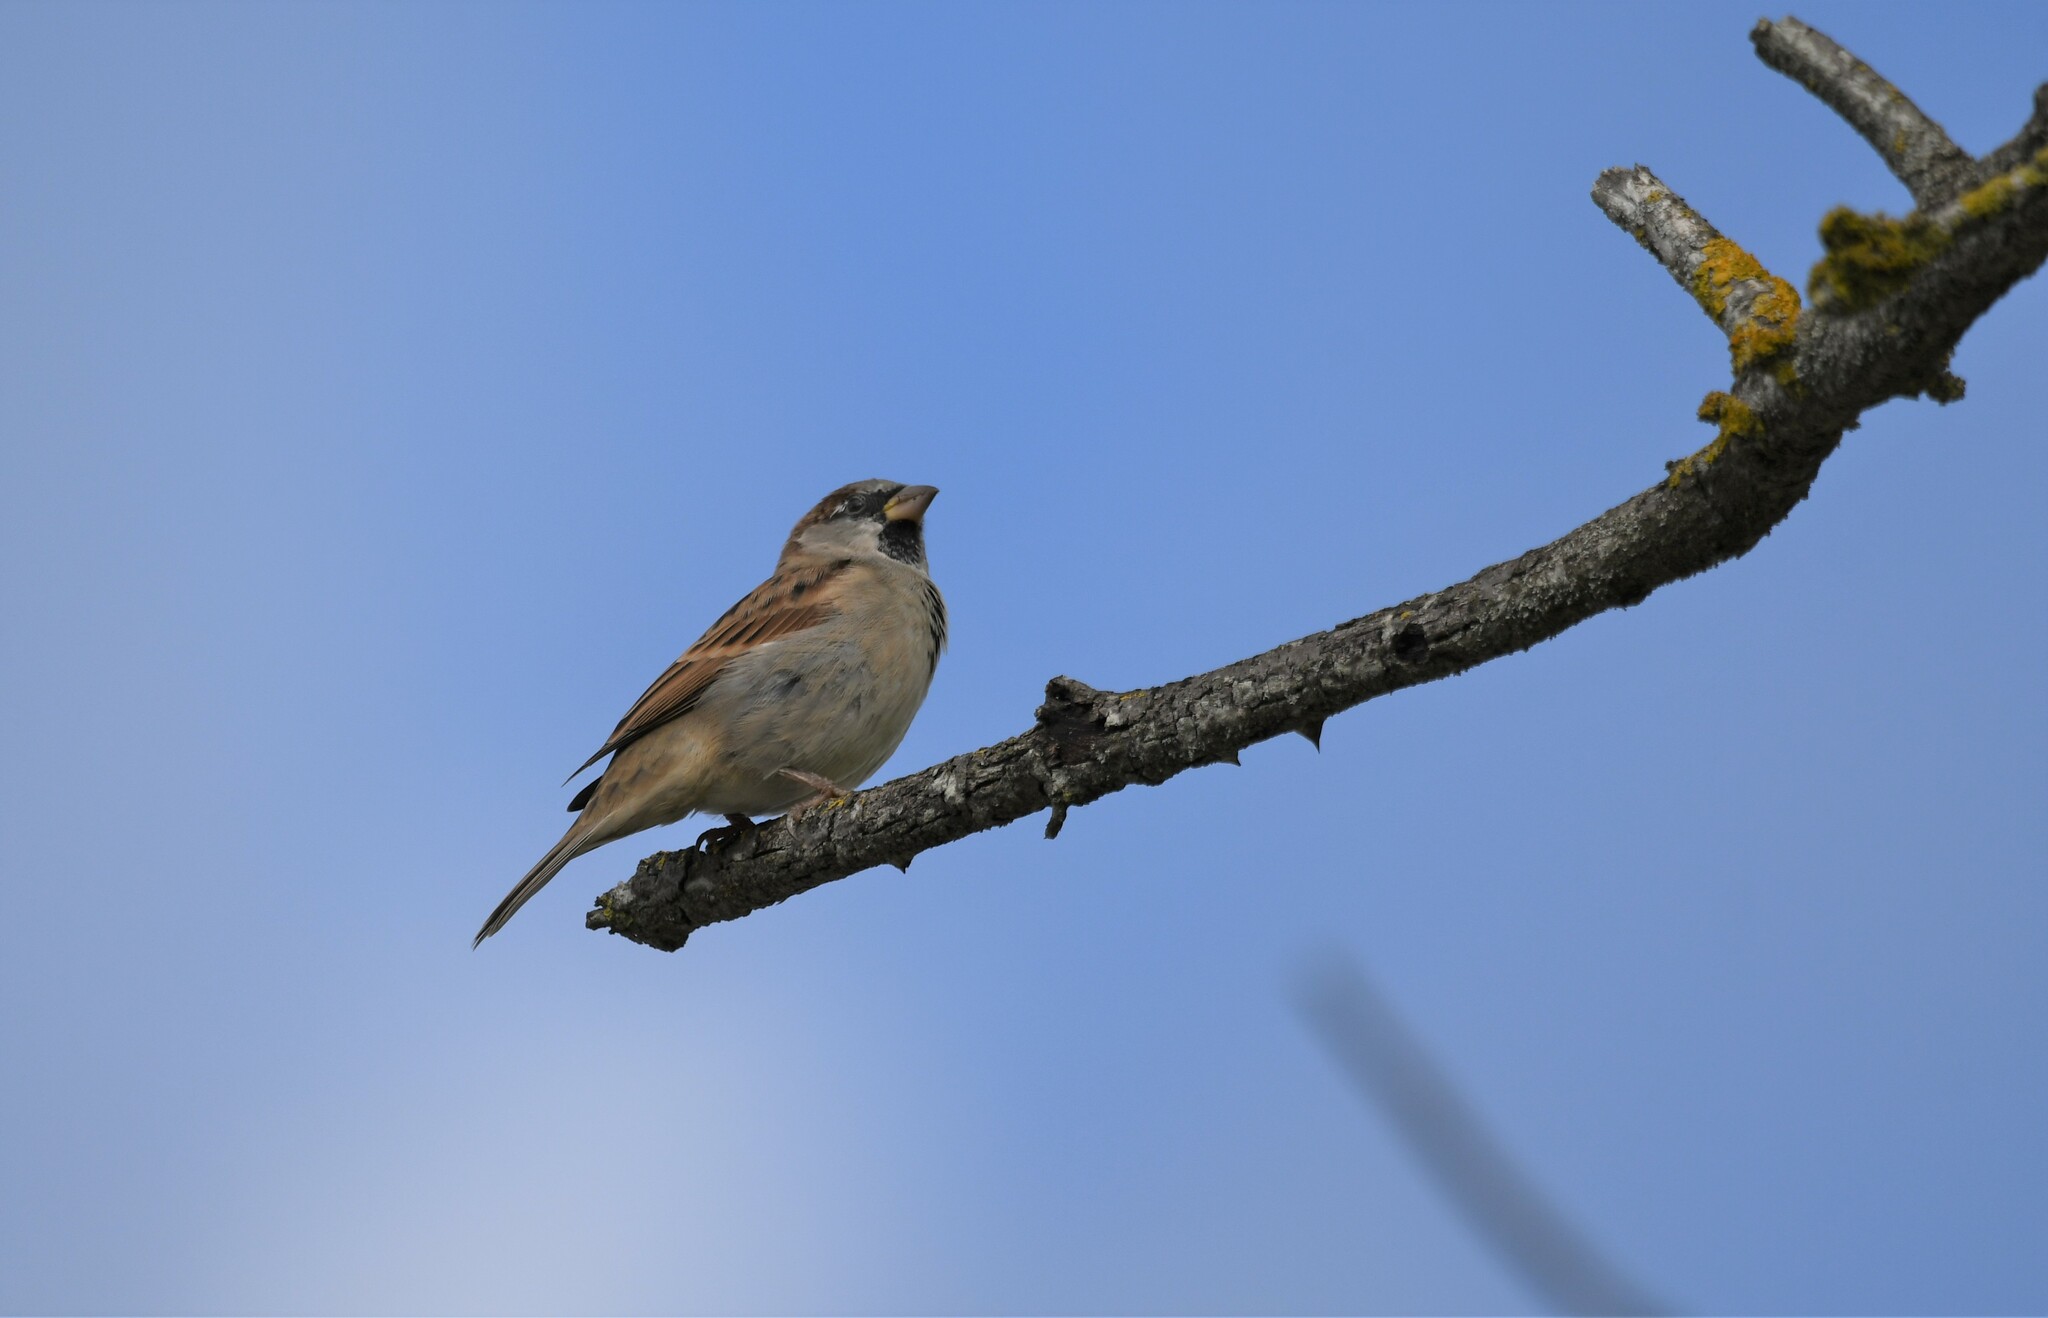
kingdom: Animalia
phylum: Chordata
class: Aves
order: Passeriformes
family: Passeridae
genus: Passer
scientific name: Passer domesticus
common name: House sparrow
